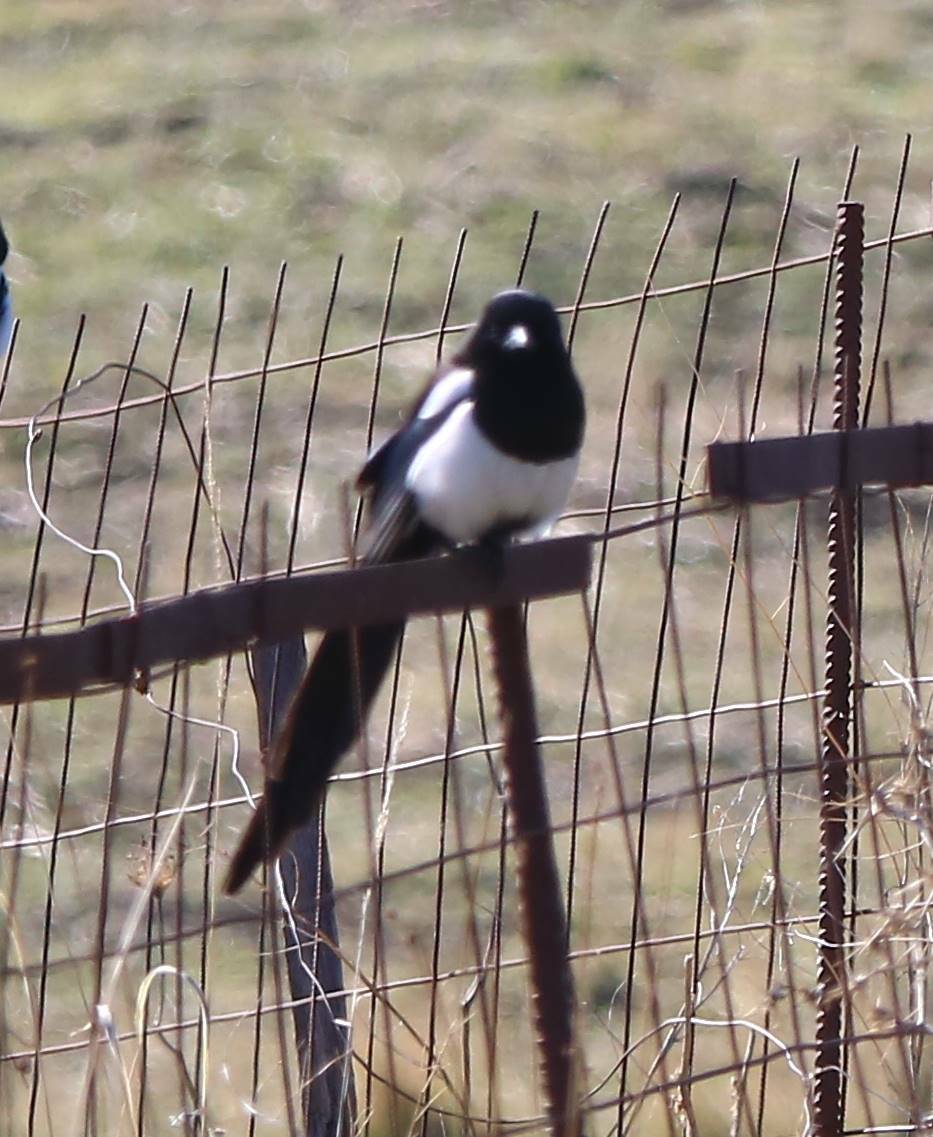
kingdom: Animalia
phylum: Chordata
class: Aves
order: Passeriformes
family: Corvidae
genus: Pica
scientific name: Pica mauritanica
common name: Maghreb magpie
